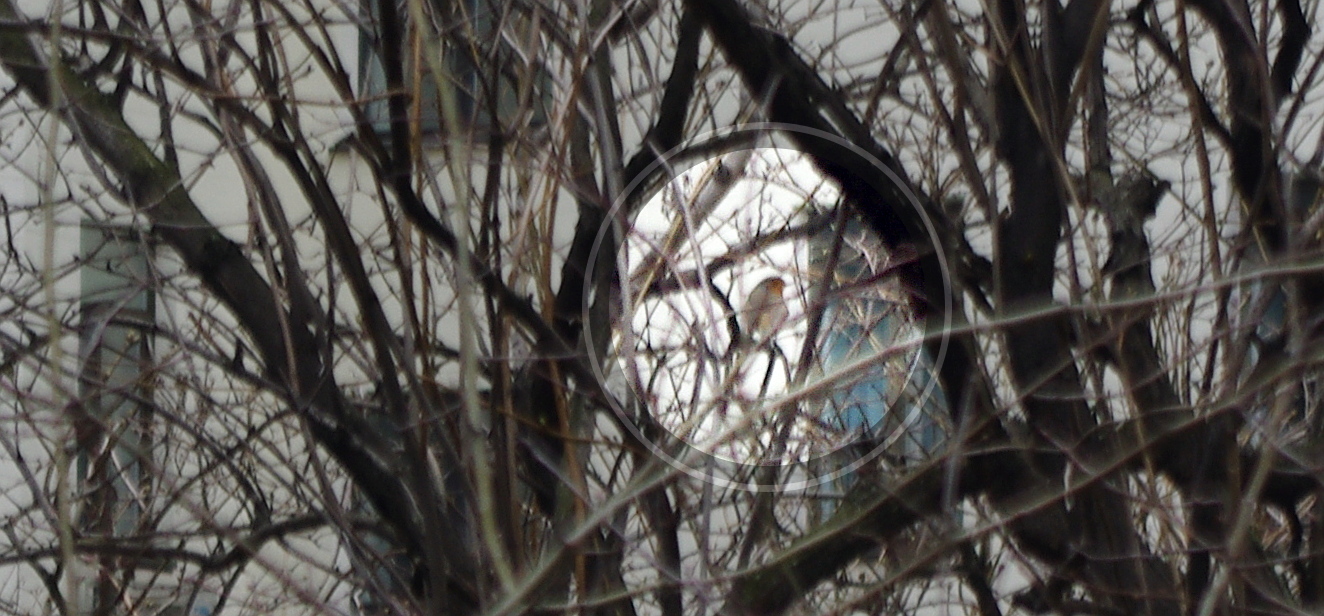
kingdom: Animalia
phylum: Chordata
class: Aves
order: Passeriformes
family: Muscicapidae
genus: Erithacus
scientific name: Erithacus rubecula
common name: European robin
